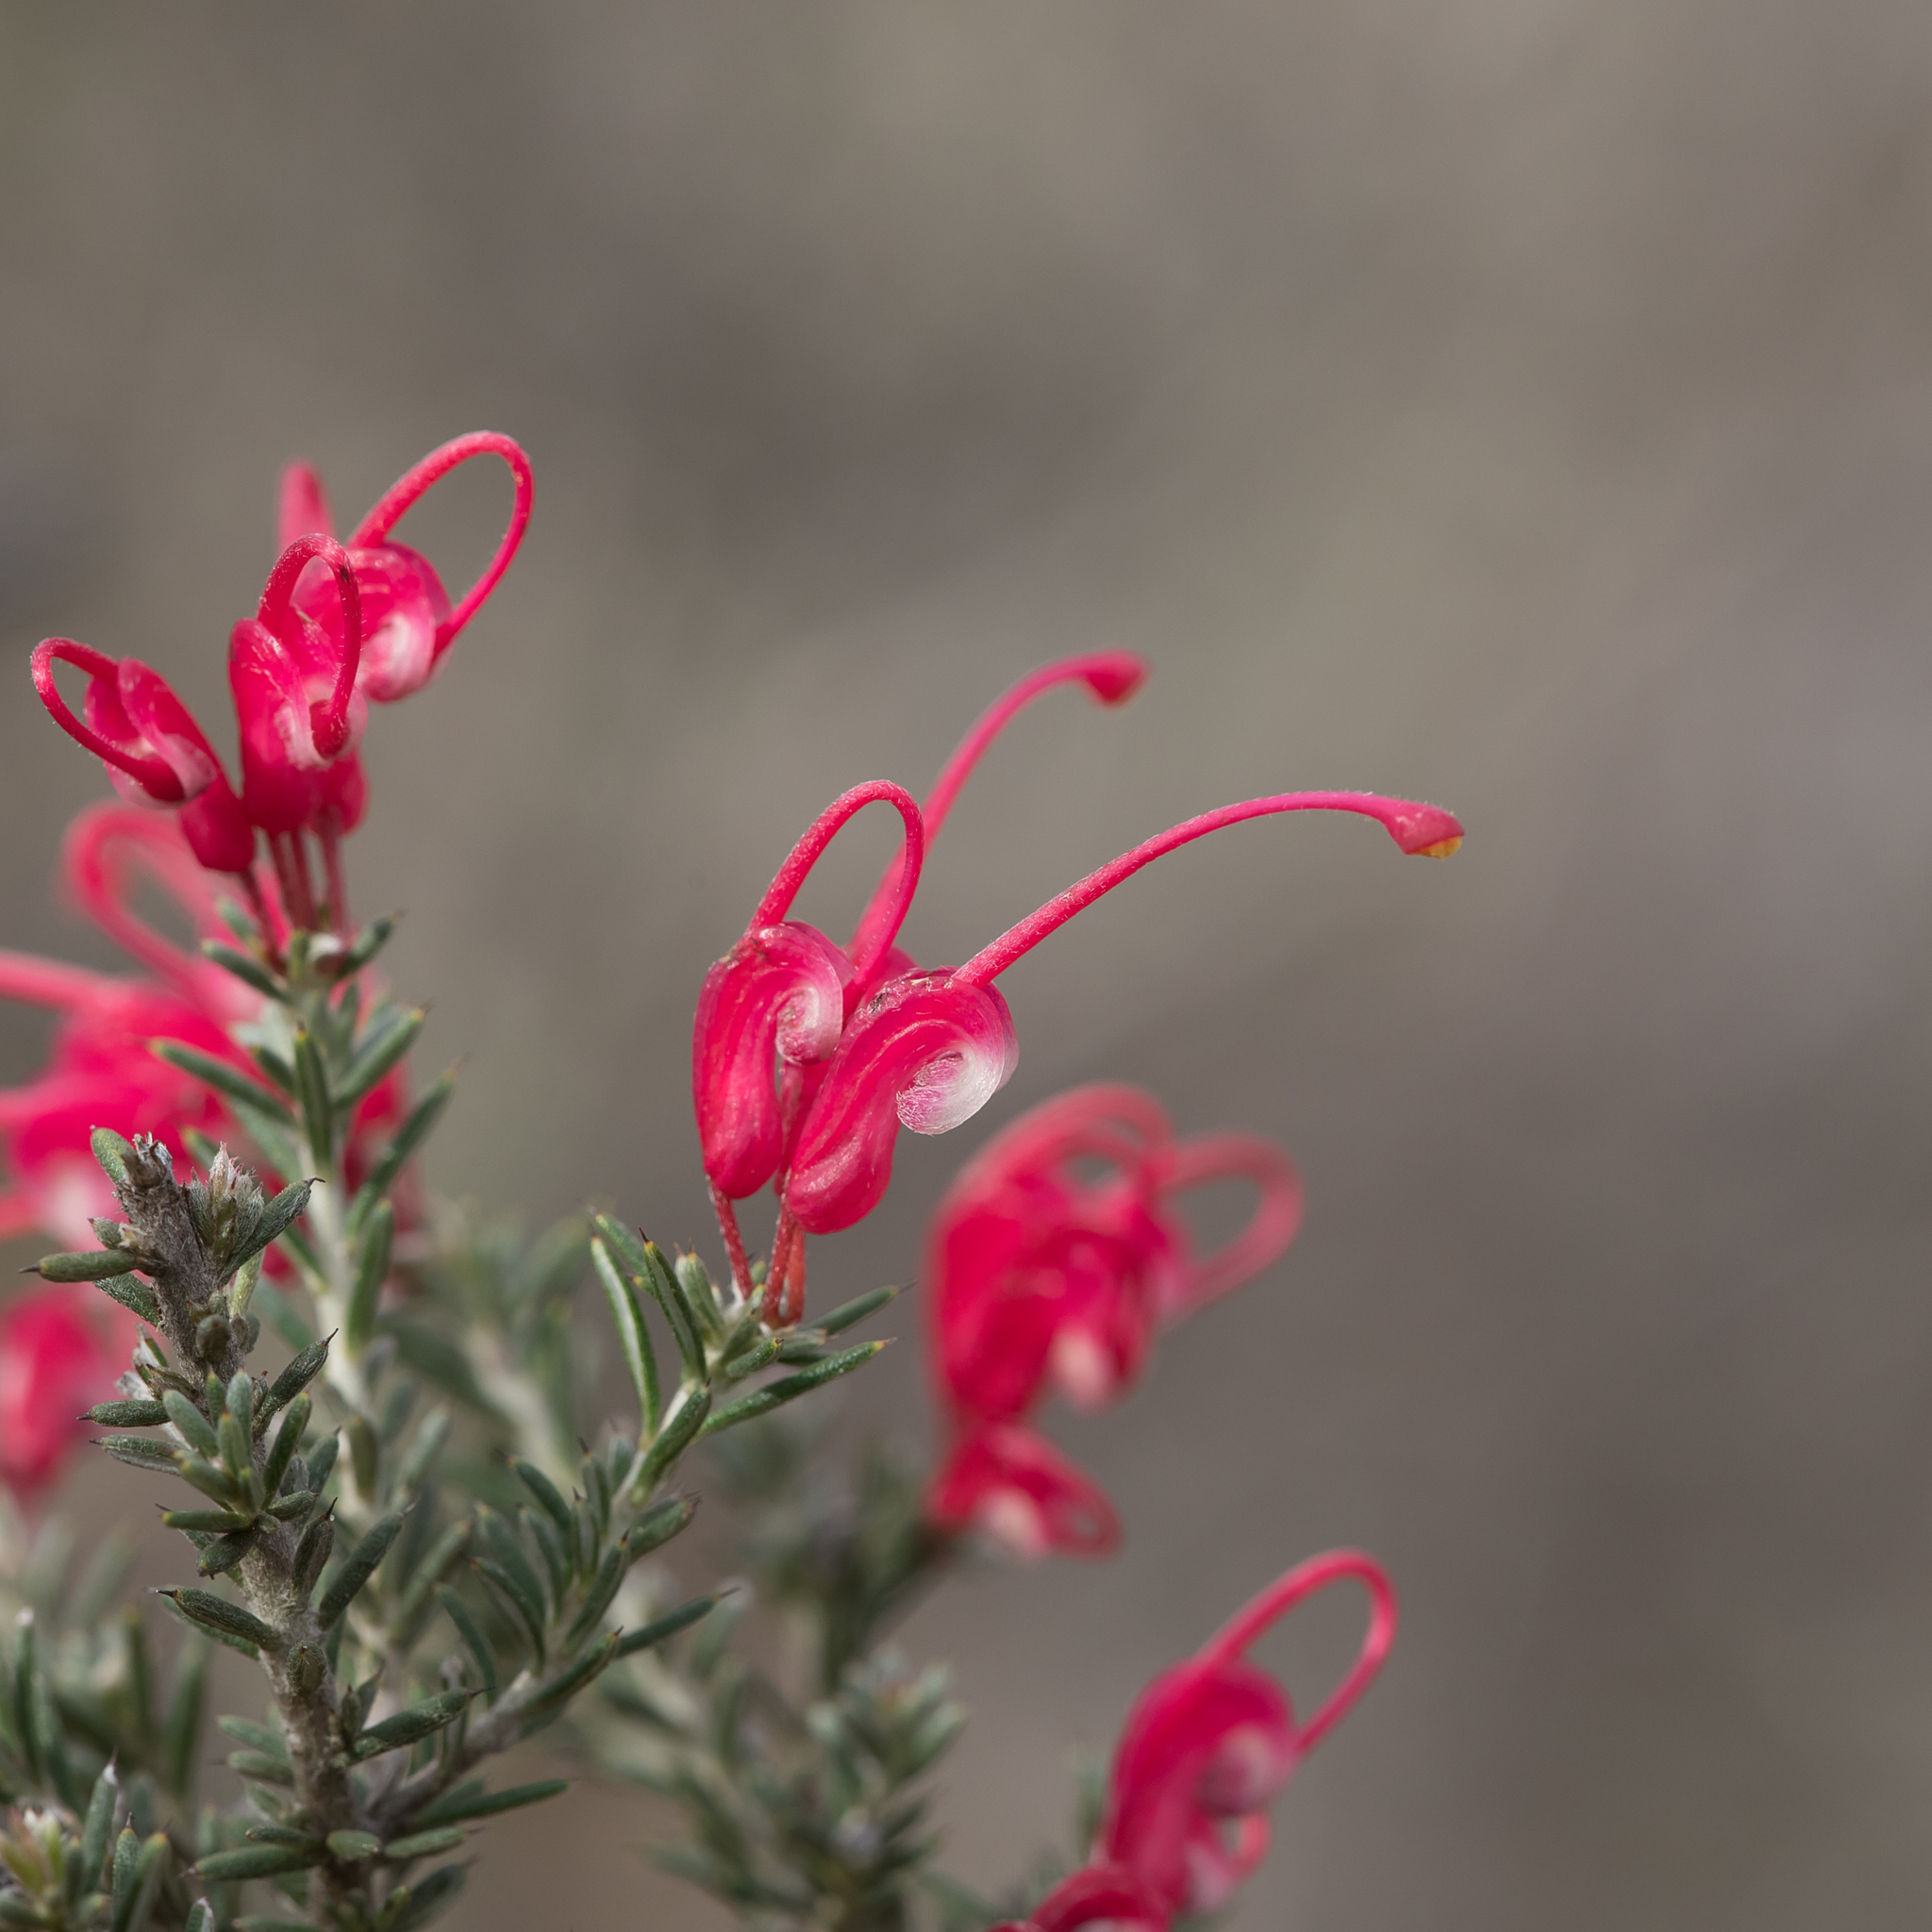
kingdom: Plantae
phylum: Tracheophyta
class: Magnoliopsida
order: Proteales
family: Proteaceae
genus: Grevillea
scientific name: Grevillea lavandulacea
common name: Lavender grevillea
